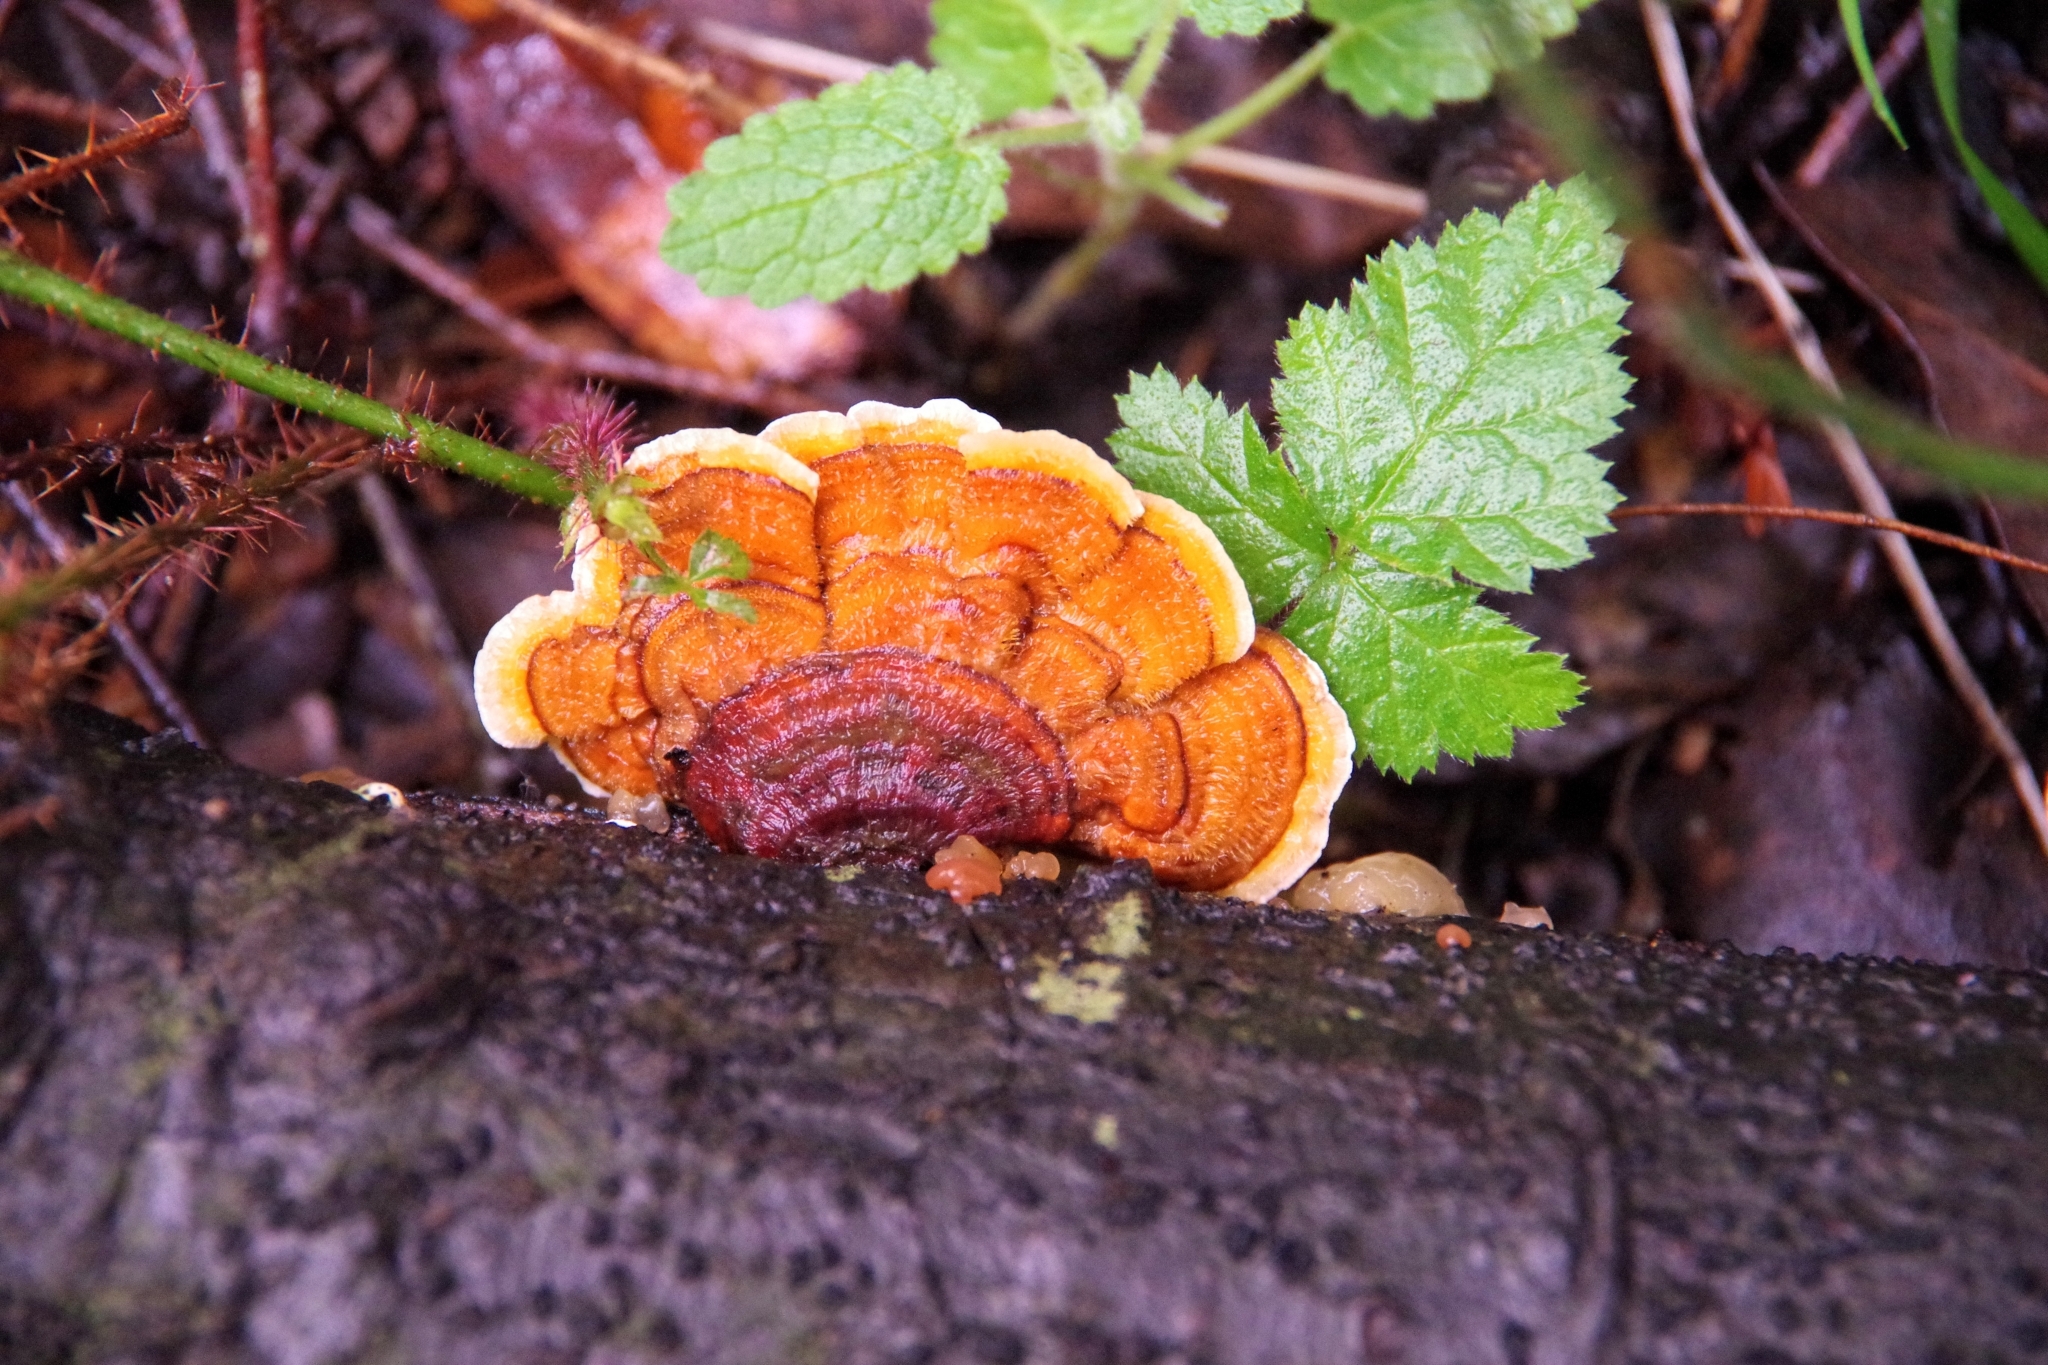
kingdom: Fungi
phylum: Basidiomycota
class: Agaricomycetes
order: Russulales
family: Stereaceae
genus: Stereum
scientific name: Stereum hirsutum
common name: Hairy curtain crust
